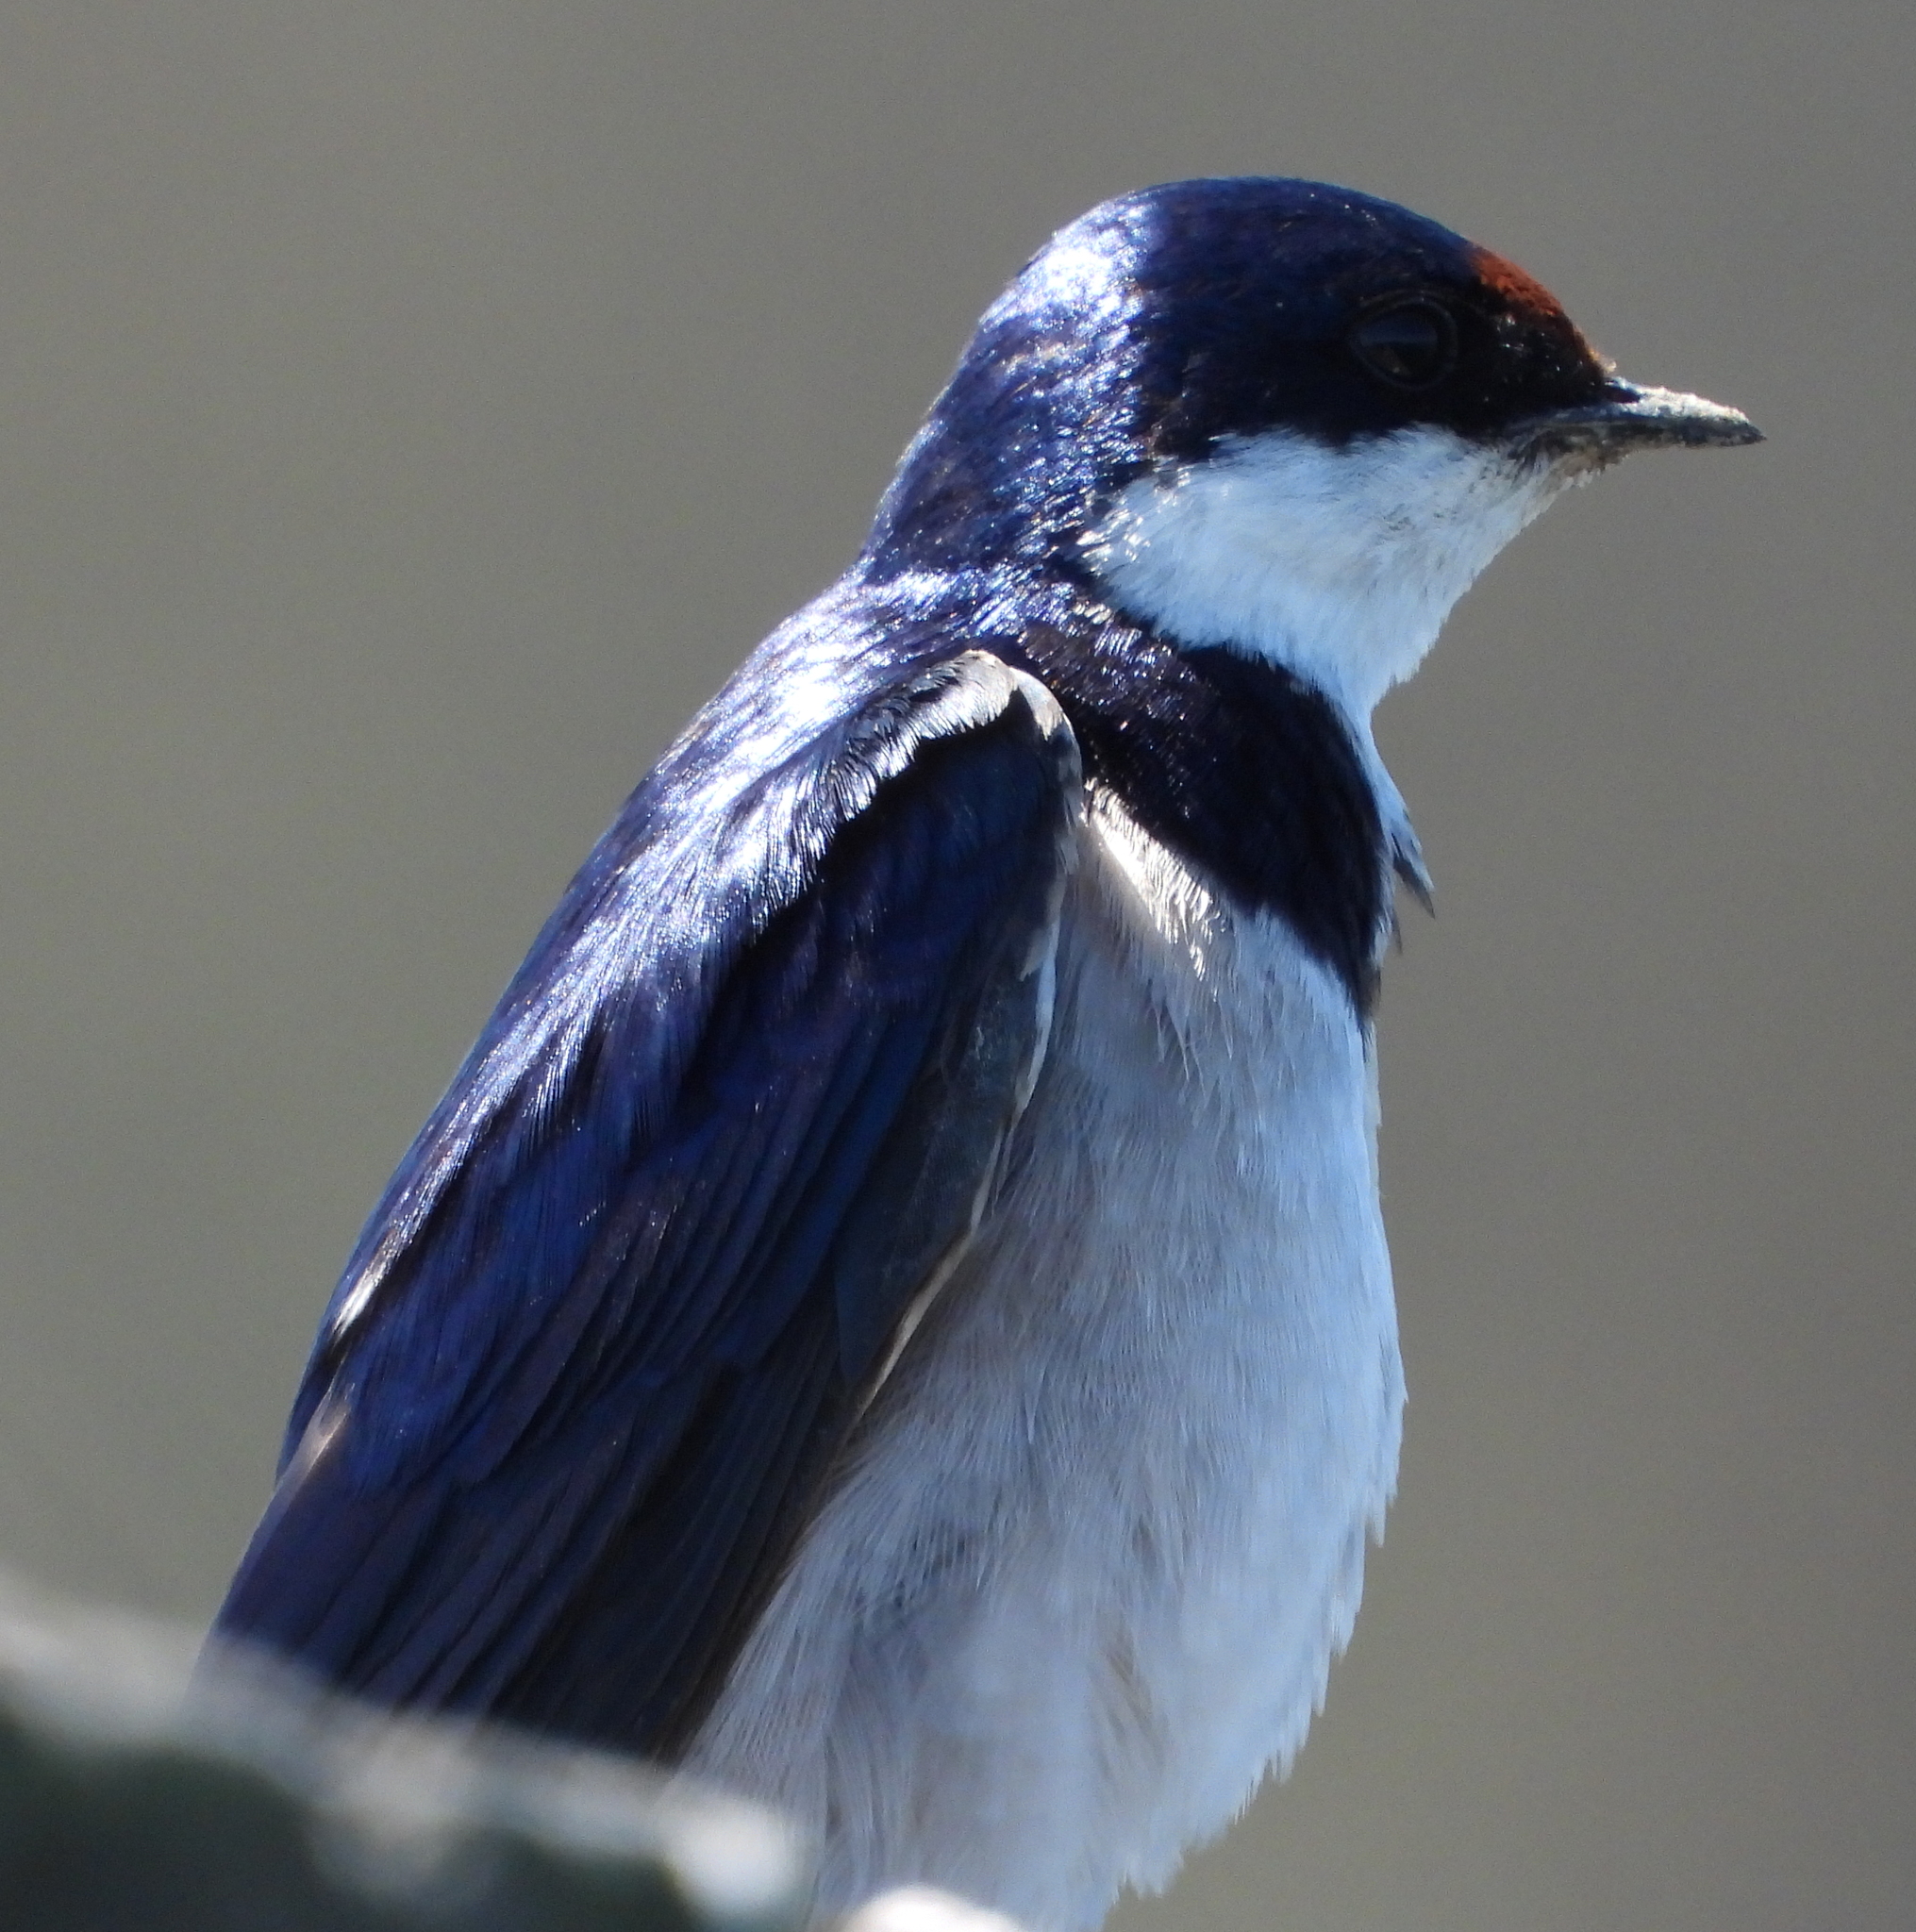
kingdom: Animalia
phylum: Chordata
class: Aves
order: Passeriformes
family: Hirundinidae
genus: Hirundo
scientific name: Hirundo albigularis
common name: White-throated swallow
